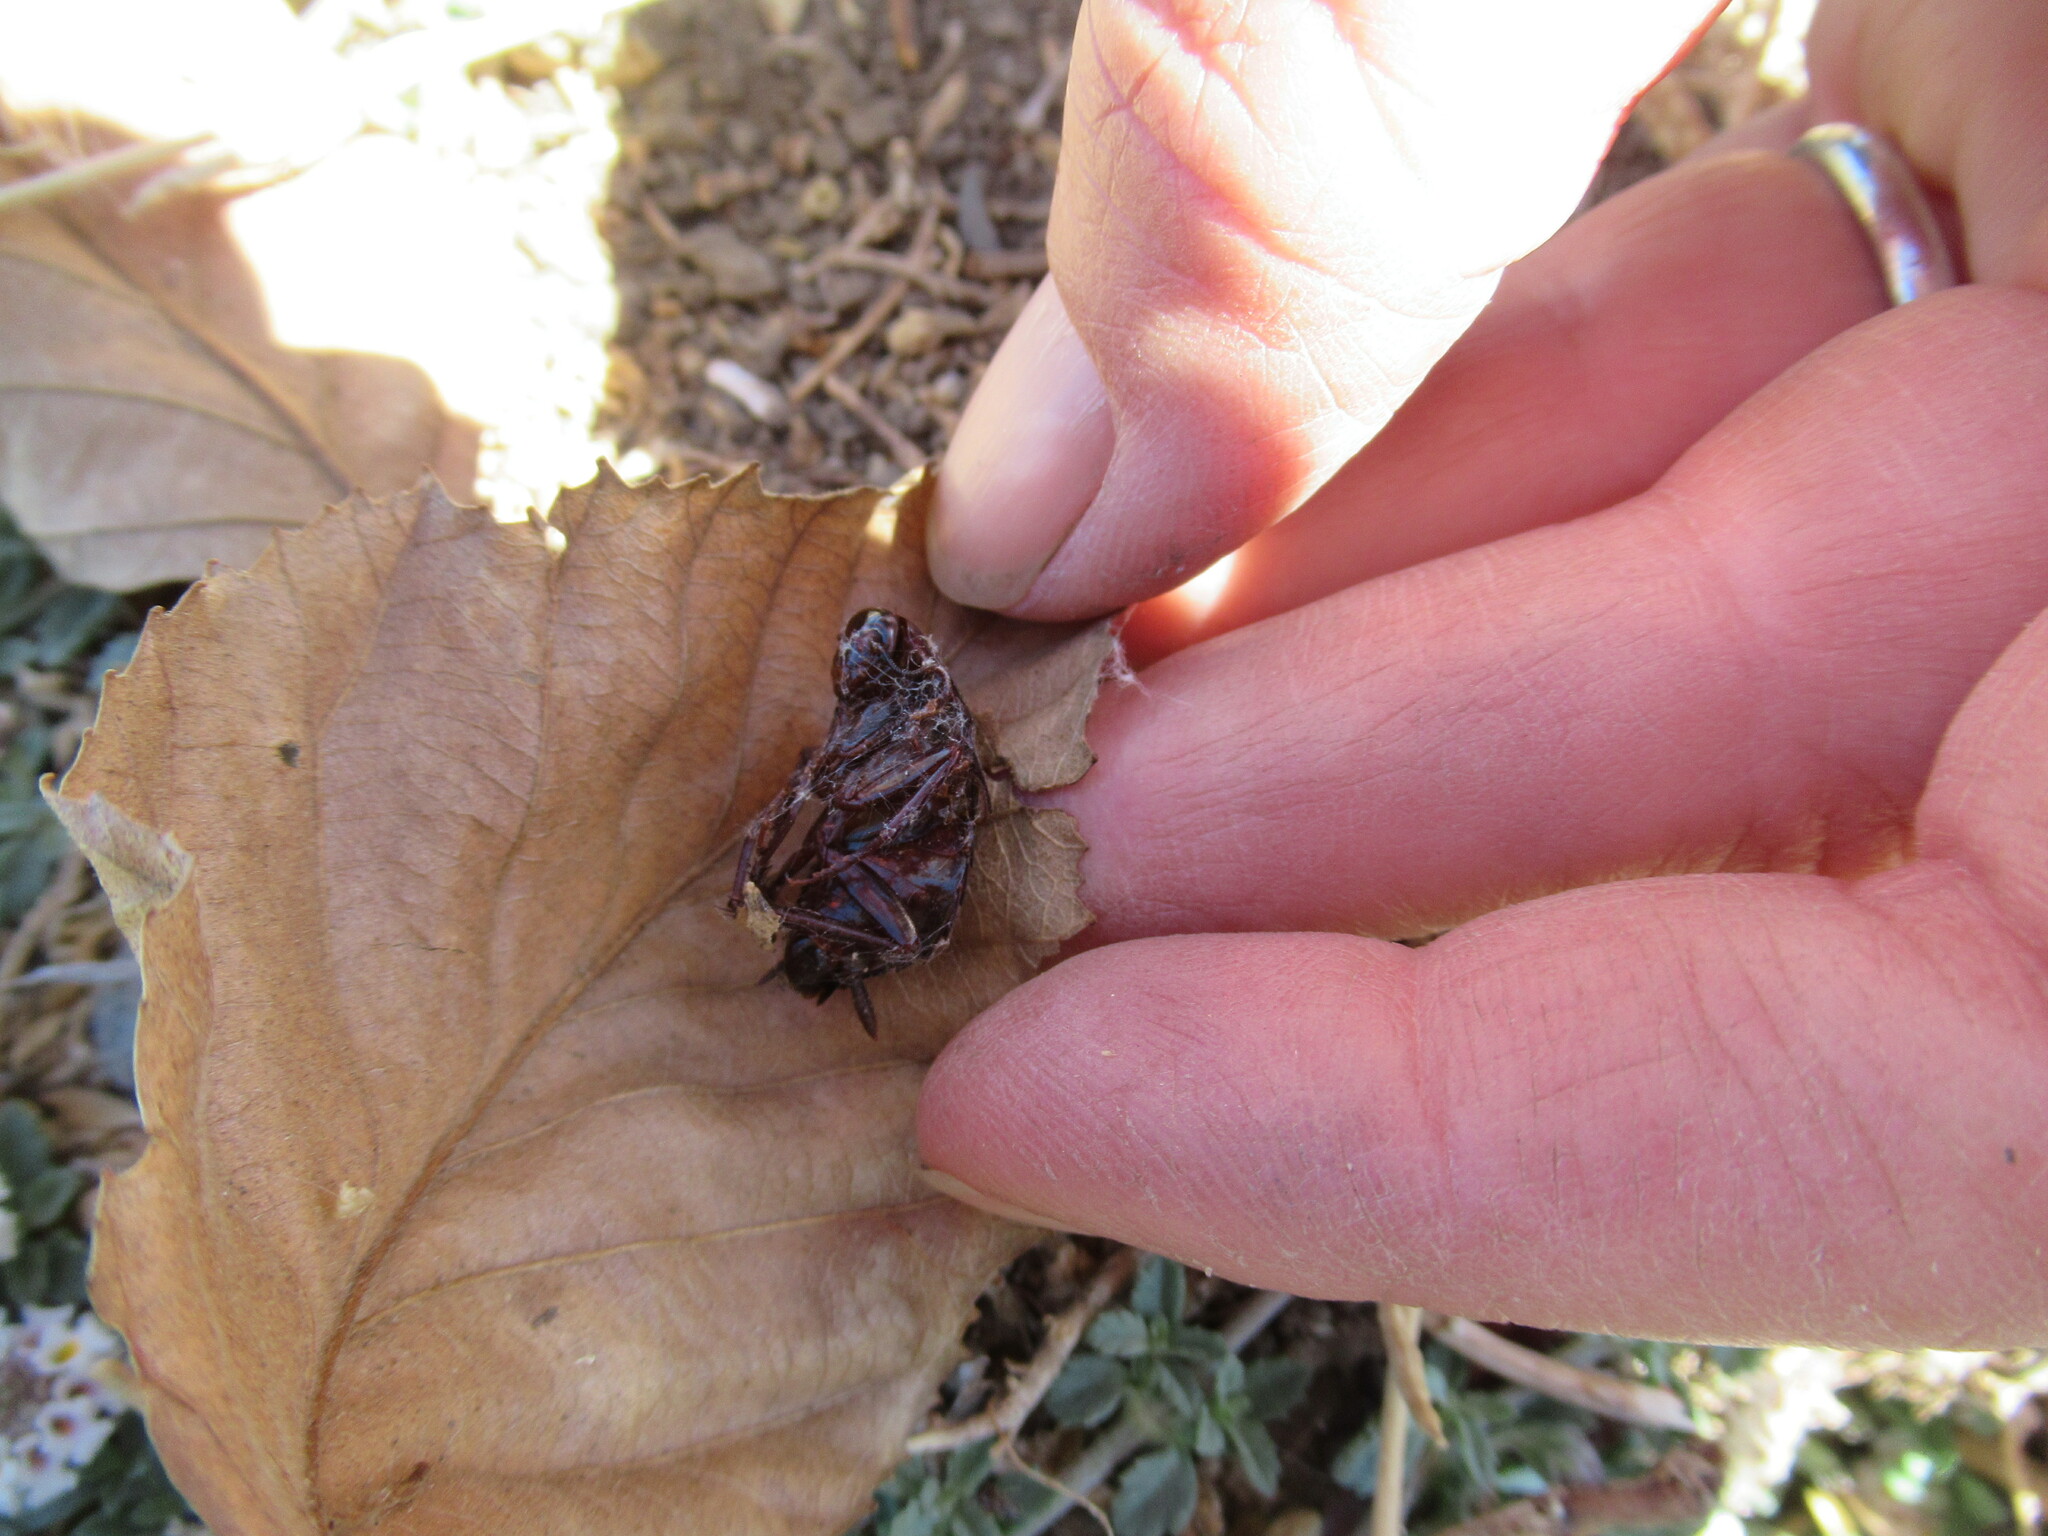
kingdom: Animalia
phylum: Arthropoda
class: Insecta
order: Blattodea
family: Blattidae
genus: Blatta
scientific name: Blatta orientalis
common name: Oriental cockroach
